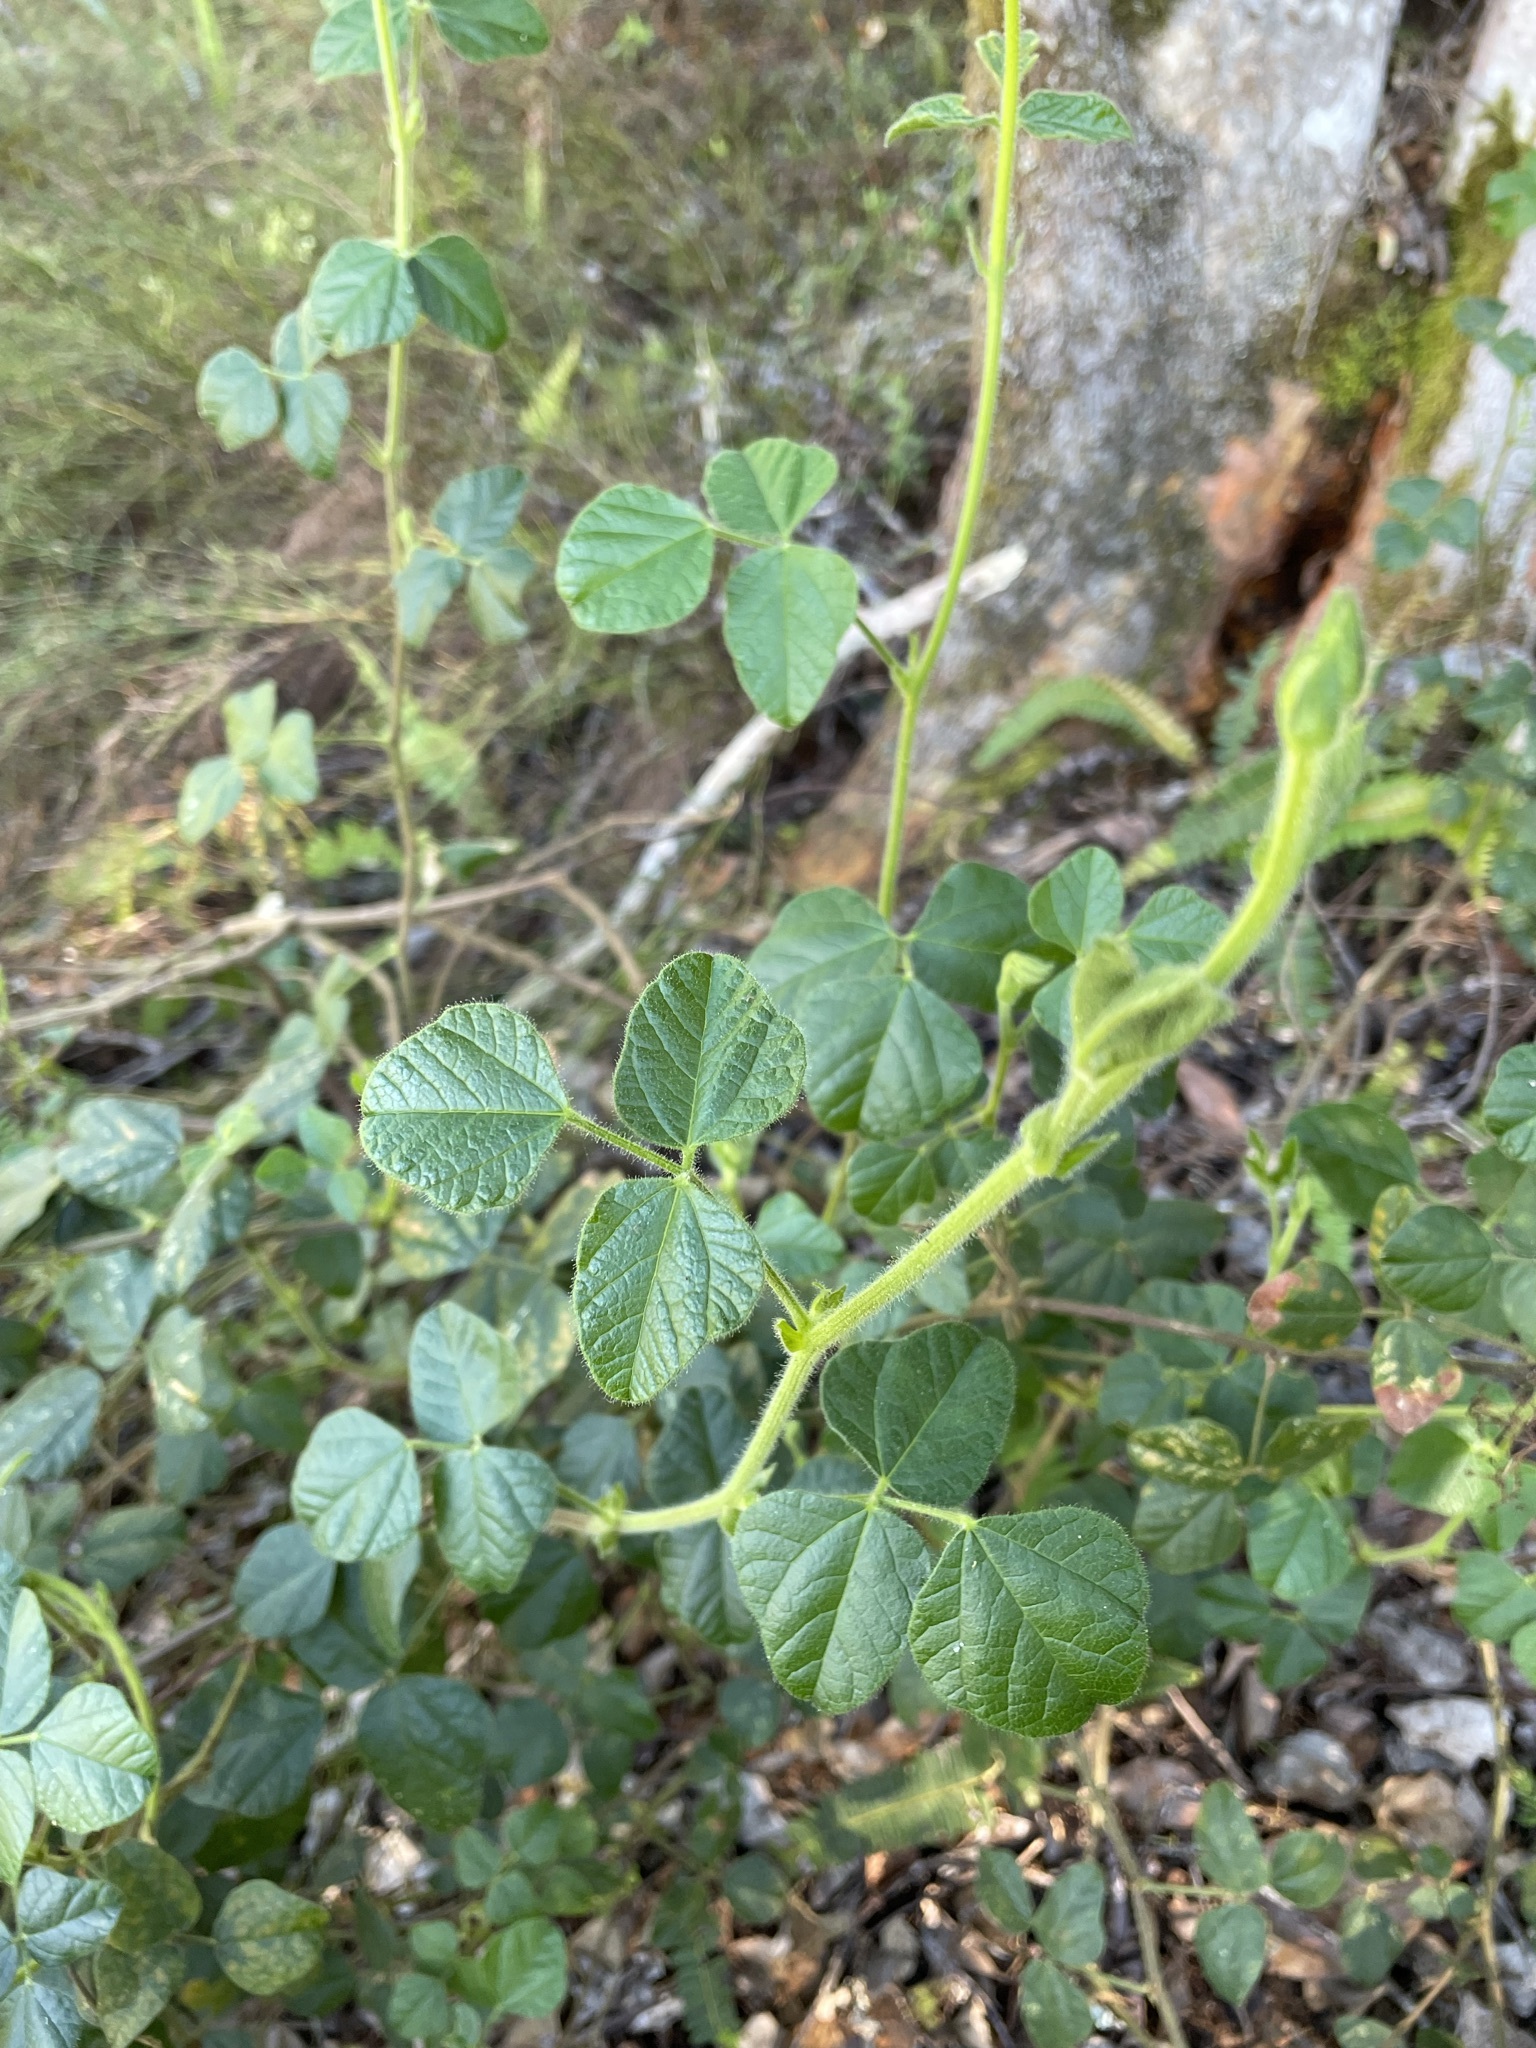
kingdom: Plantae
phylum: Tracheophyta
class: Magnoliopsida
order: Fabales
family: Fabaceae
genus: Bolusafra
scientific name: Bolusafra bituminosa
